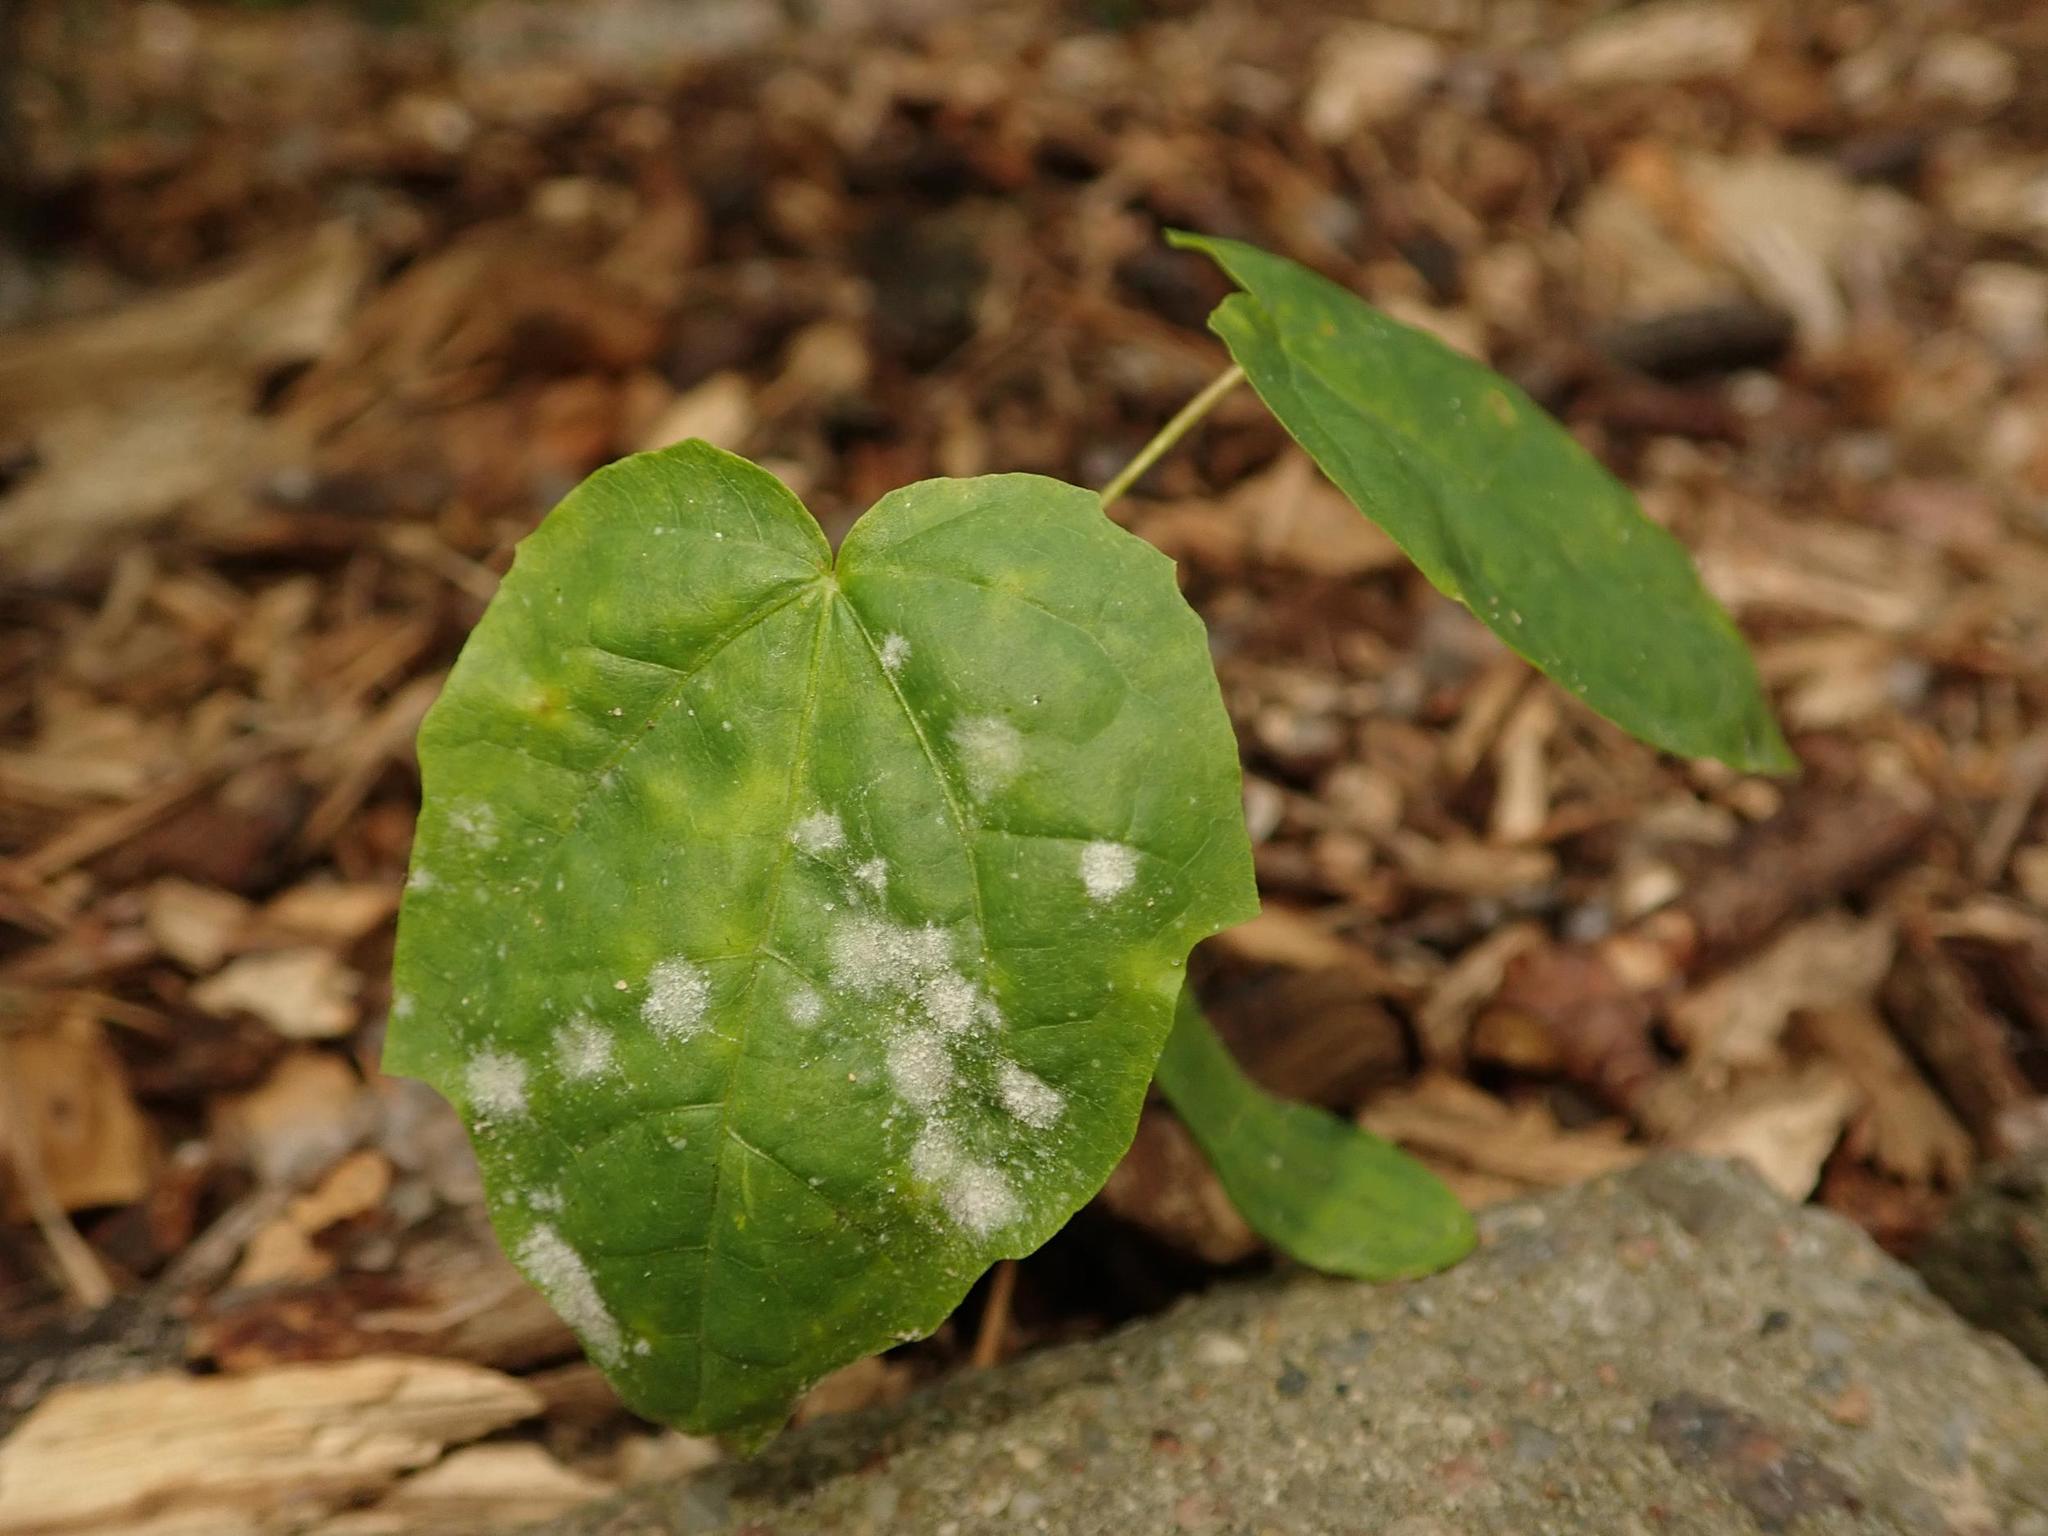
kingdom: Plantae
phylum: Tracheophyta
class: Magnoliopsida
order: Sapindales
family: Sapindaceae
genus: Acer
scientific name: Acer platanoides
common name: Norway maple
